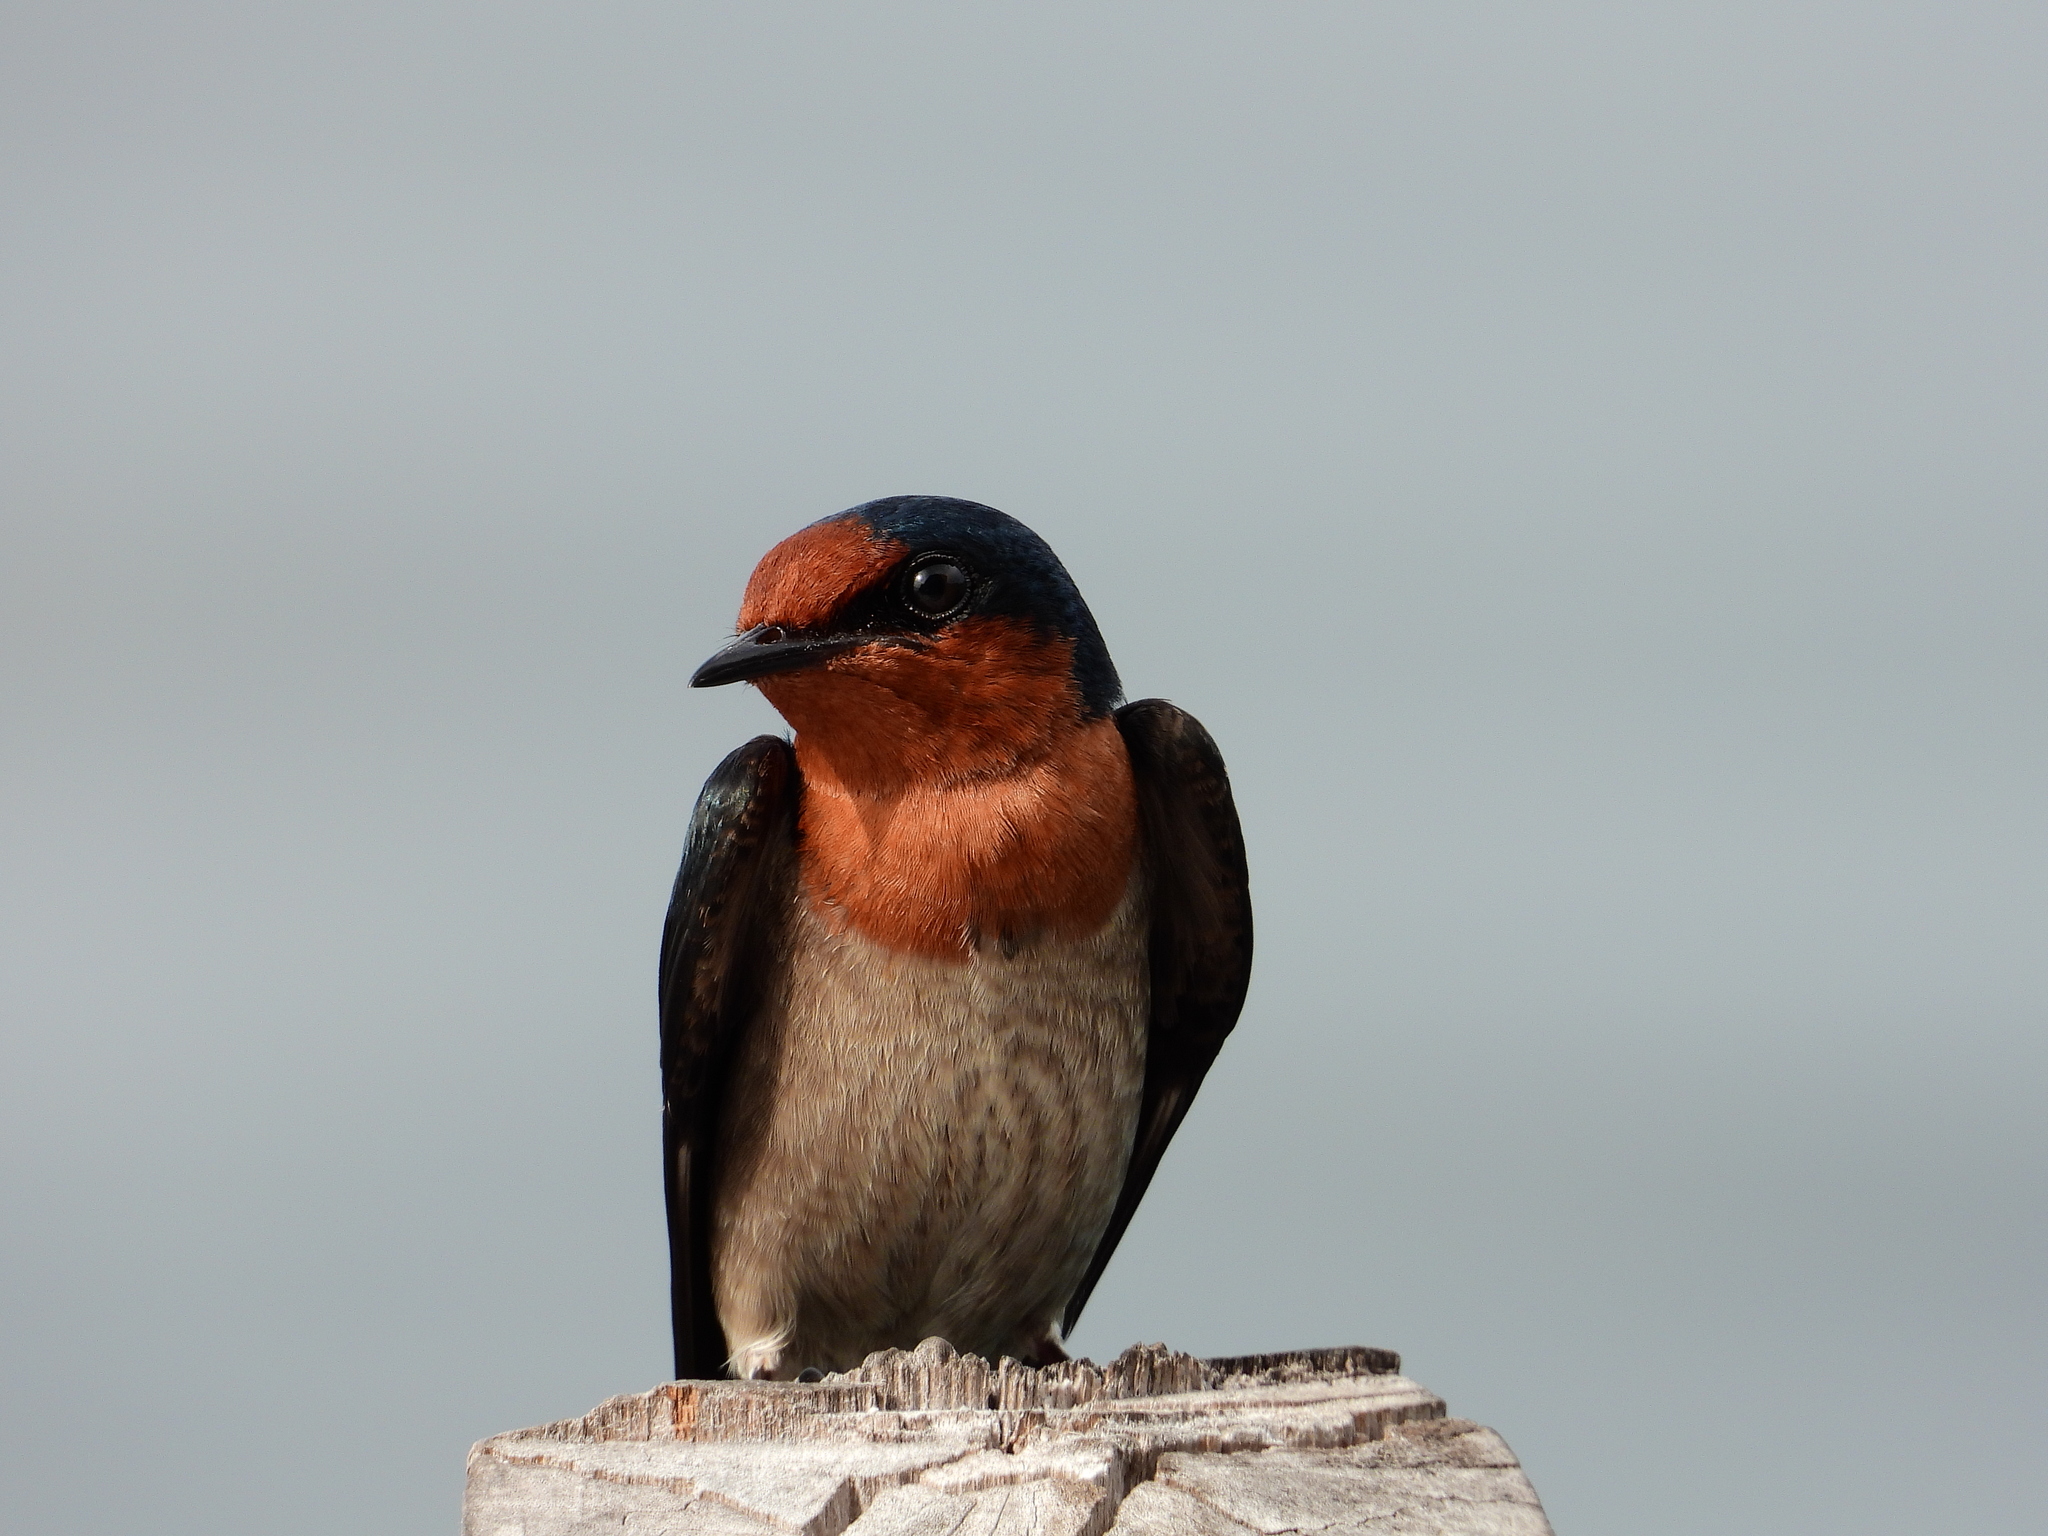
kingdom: Animalia
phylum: Chordata
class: Aves
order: Passeriformes
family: Hirundinidae
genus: Hirundo
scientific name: Hirundo tahitica
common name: Pacific swallow
